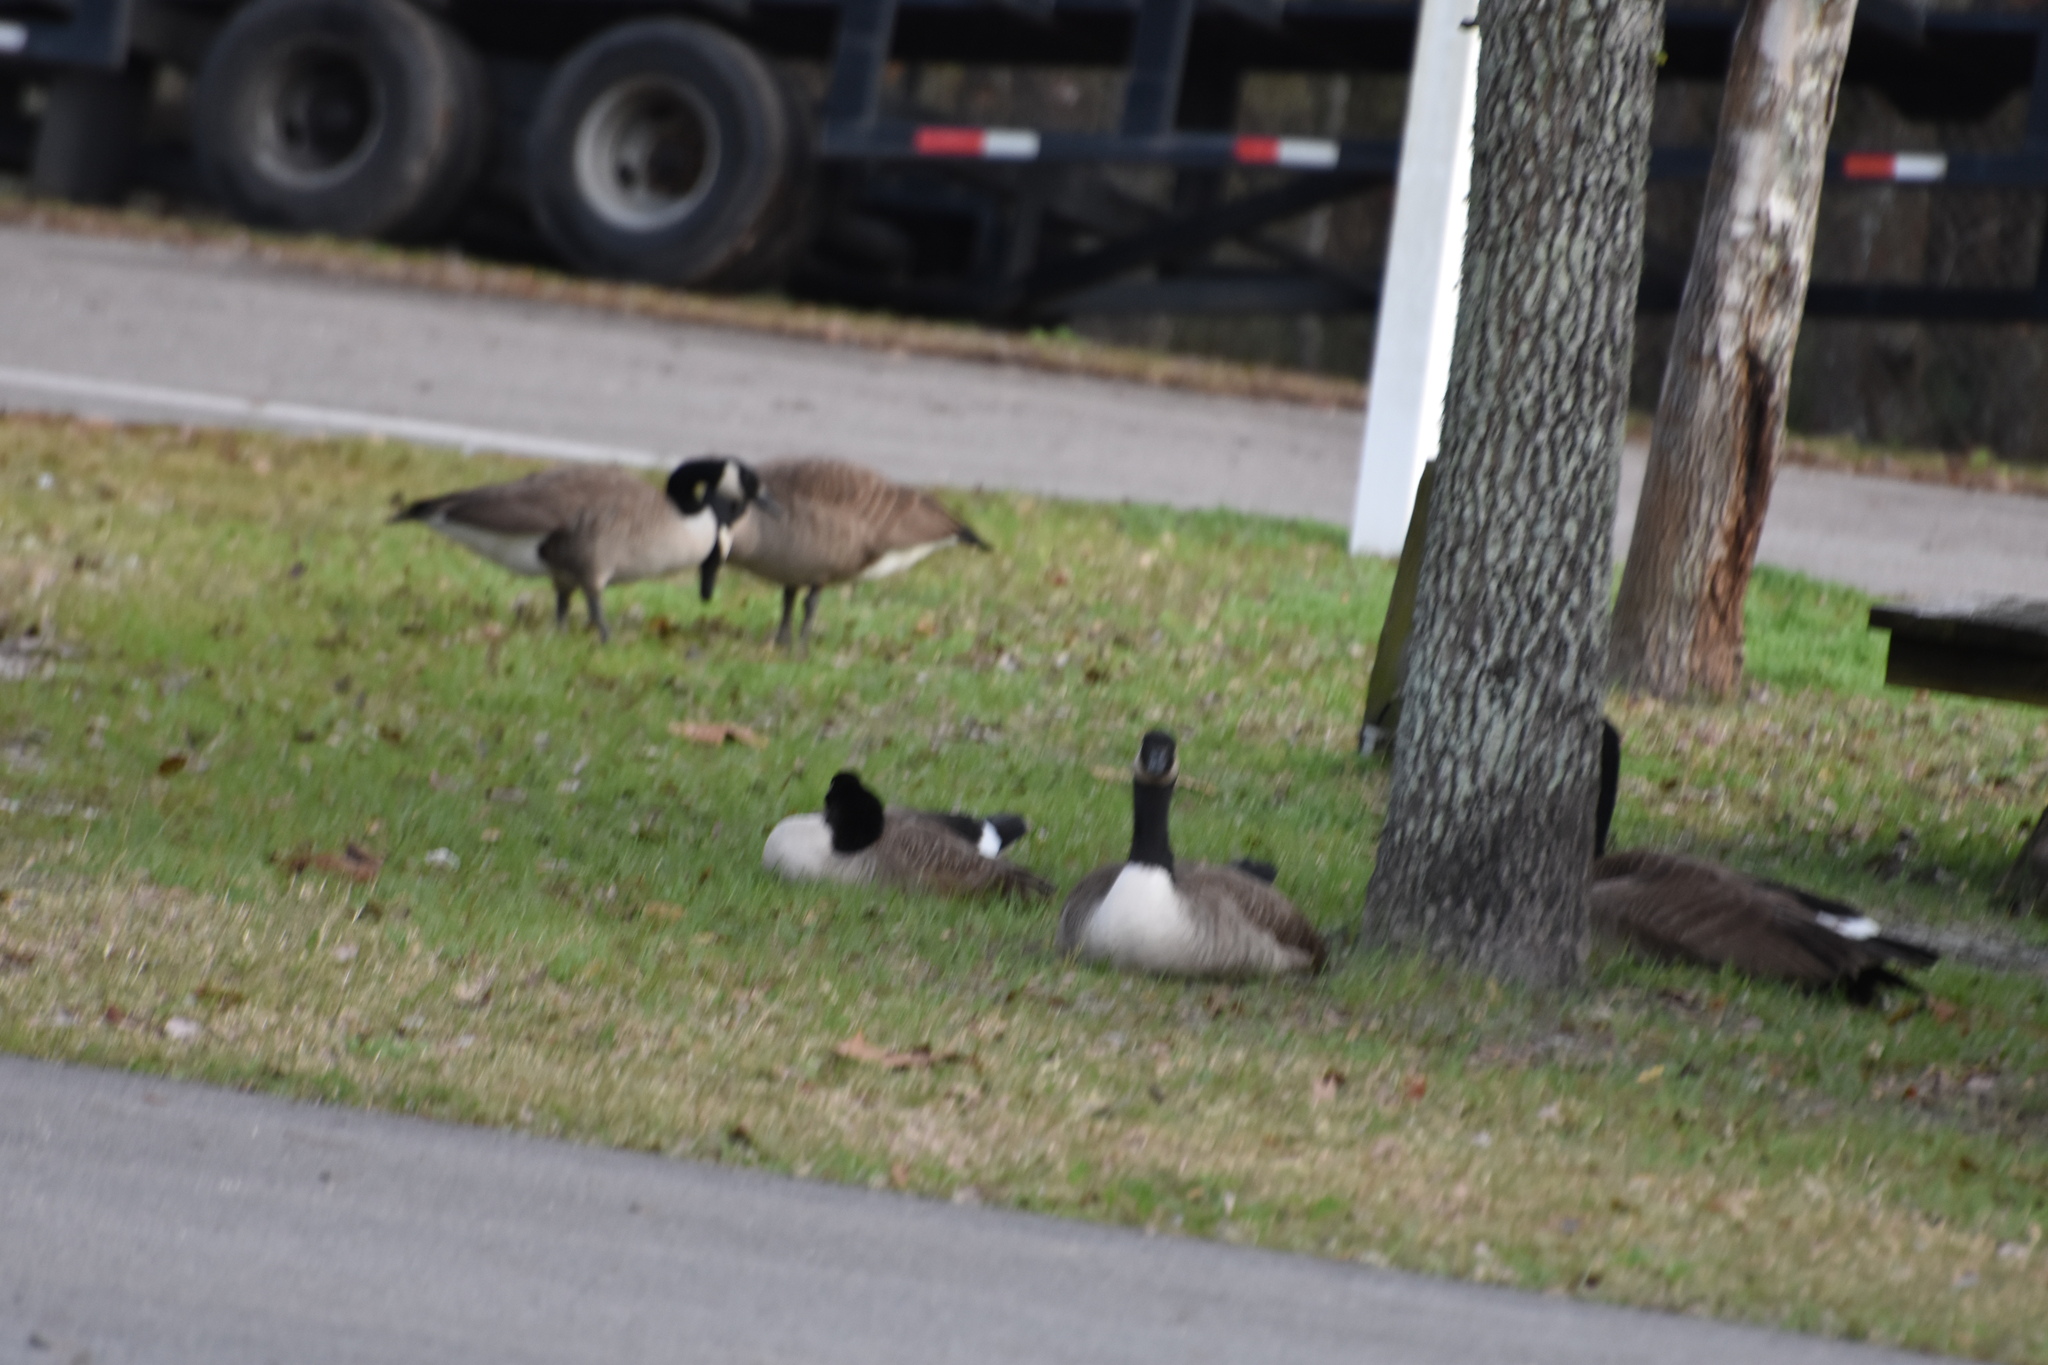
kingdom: Animalia
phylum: Chordata
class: Aves
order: Anseriformes
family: Anatidae
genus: Branta
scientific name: Branta canadensis
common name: Canada goose
